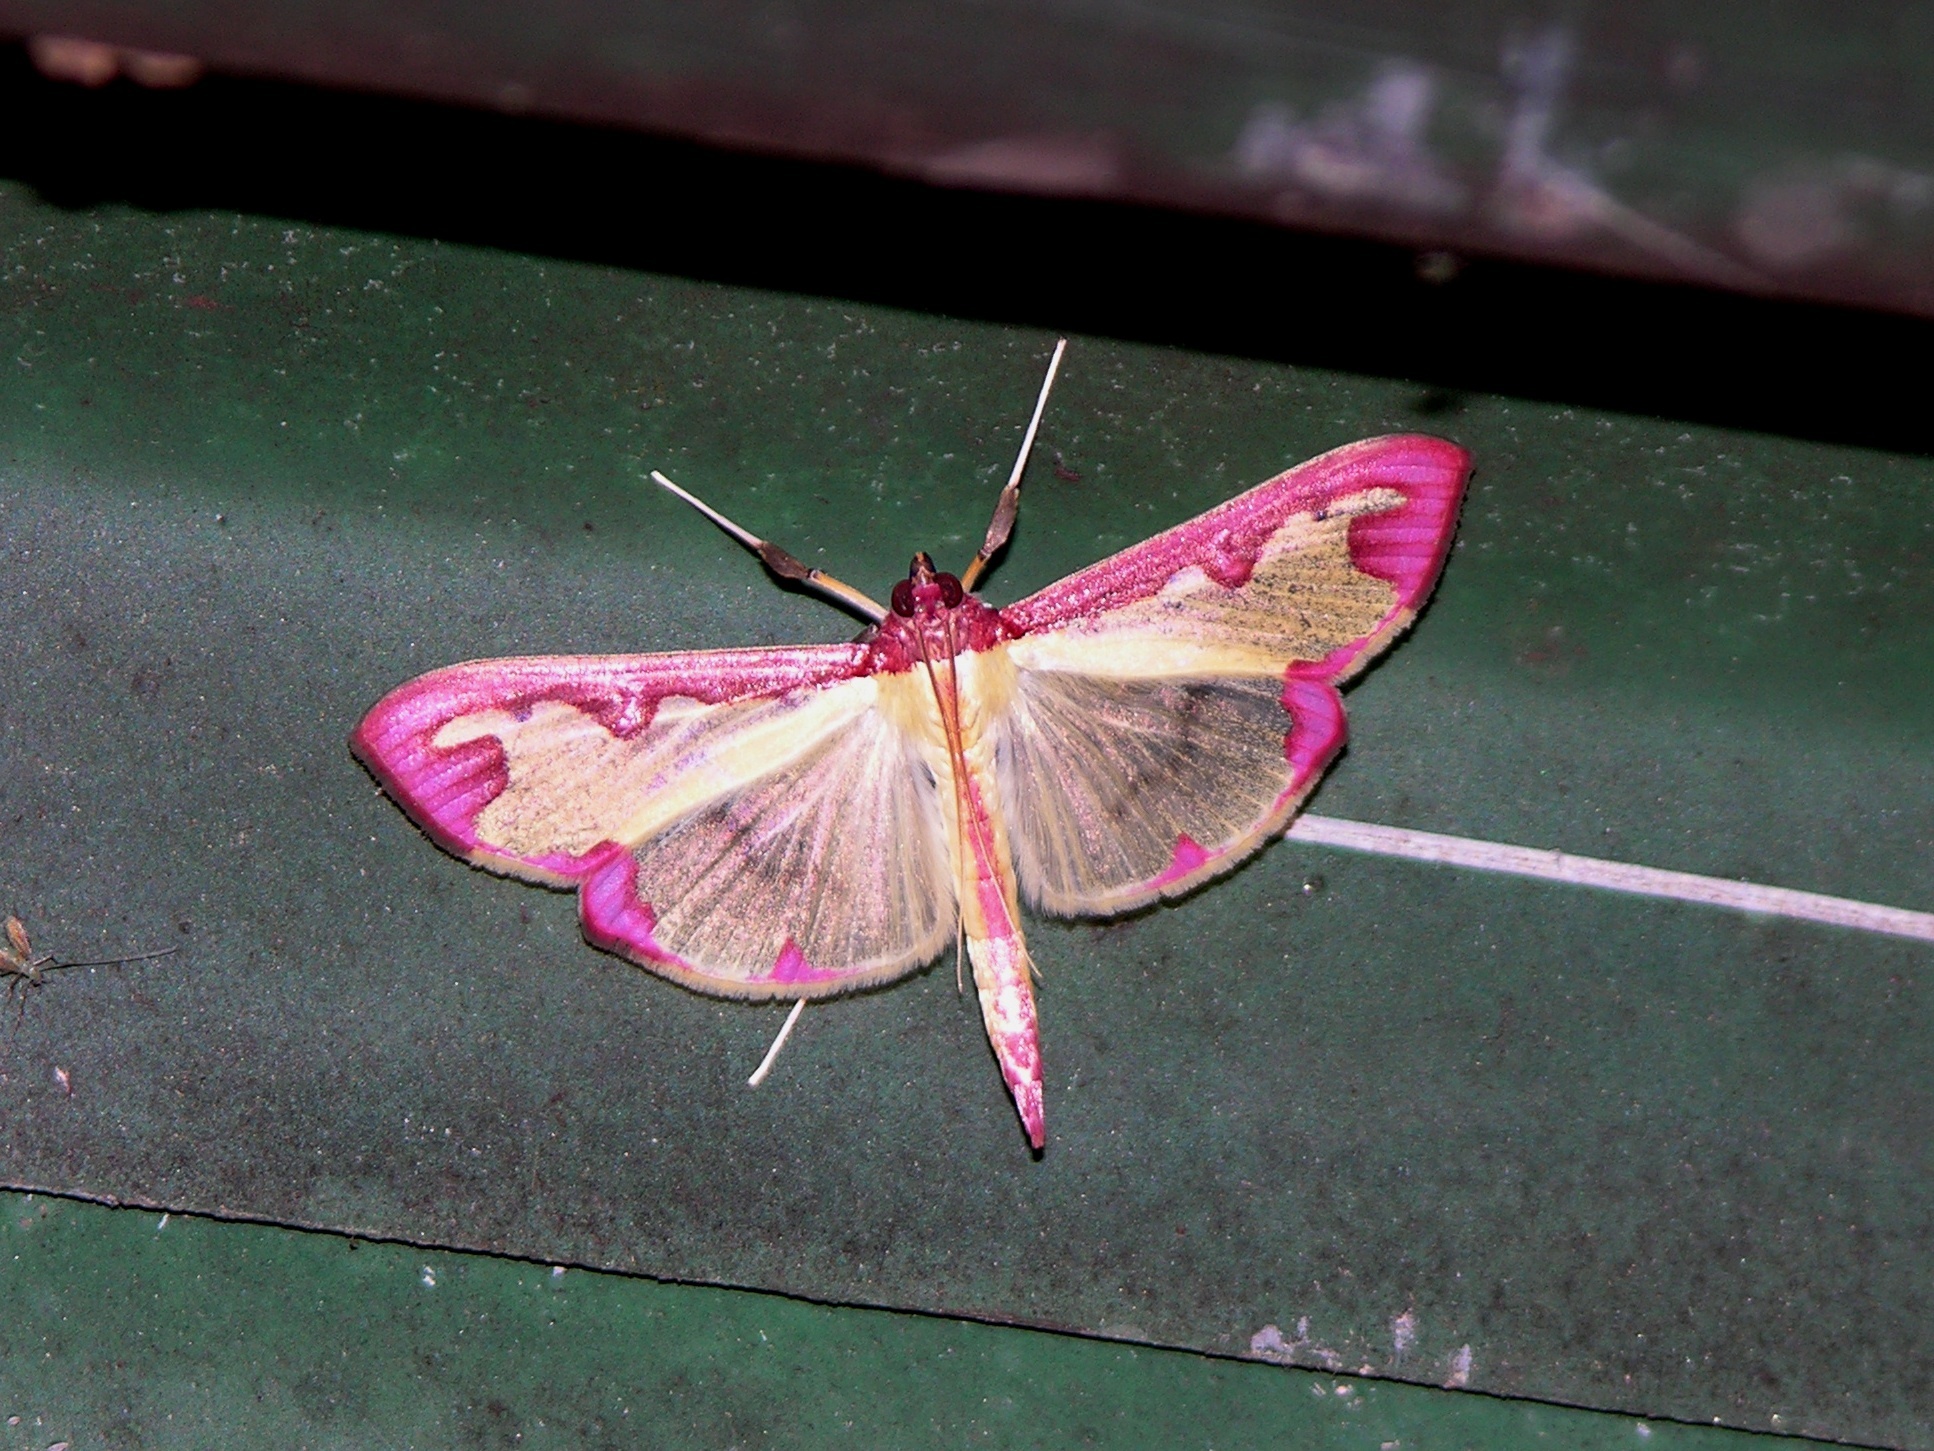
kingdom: Animalia
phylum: Arthropoda
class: Insecta
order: Lepidoptera
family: Crambidae
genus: Cadarena
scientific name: Cadarena pudoraria
